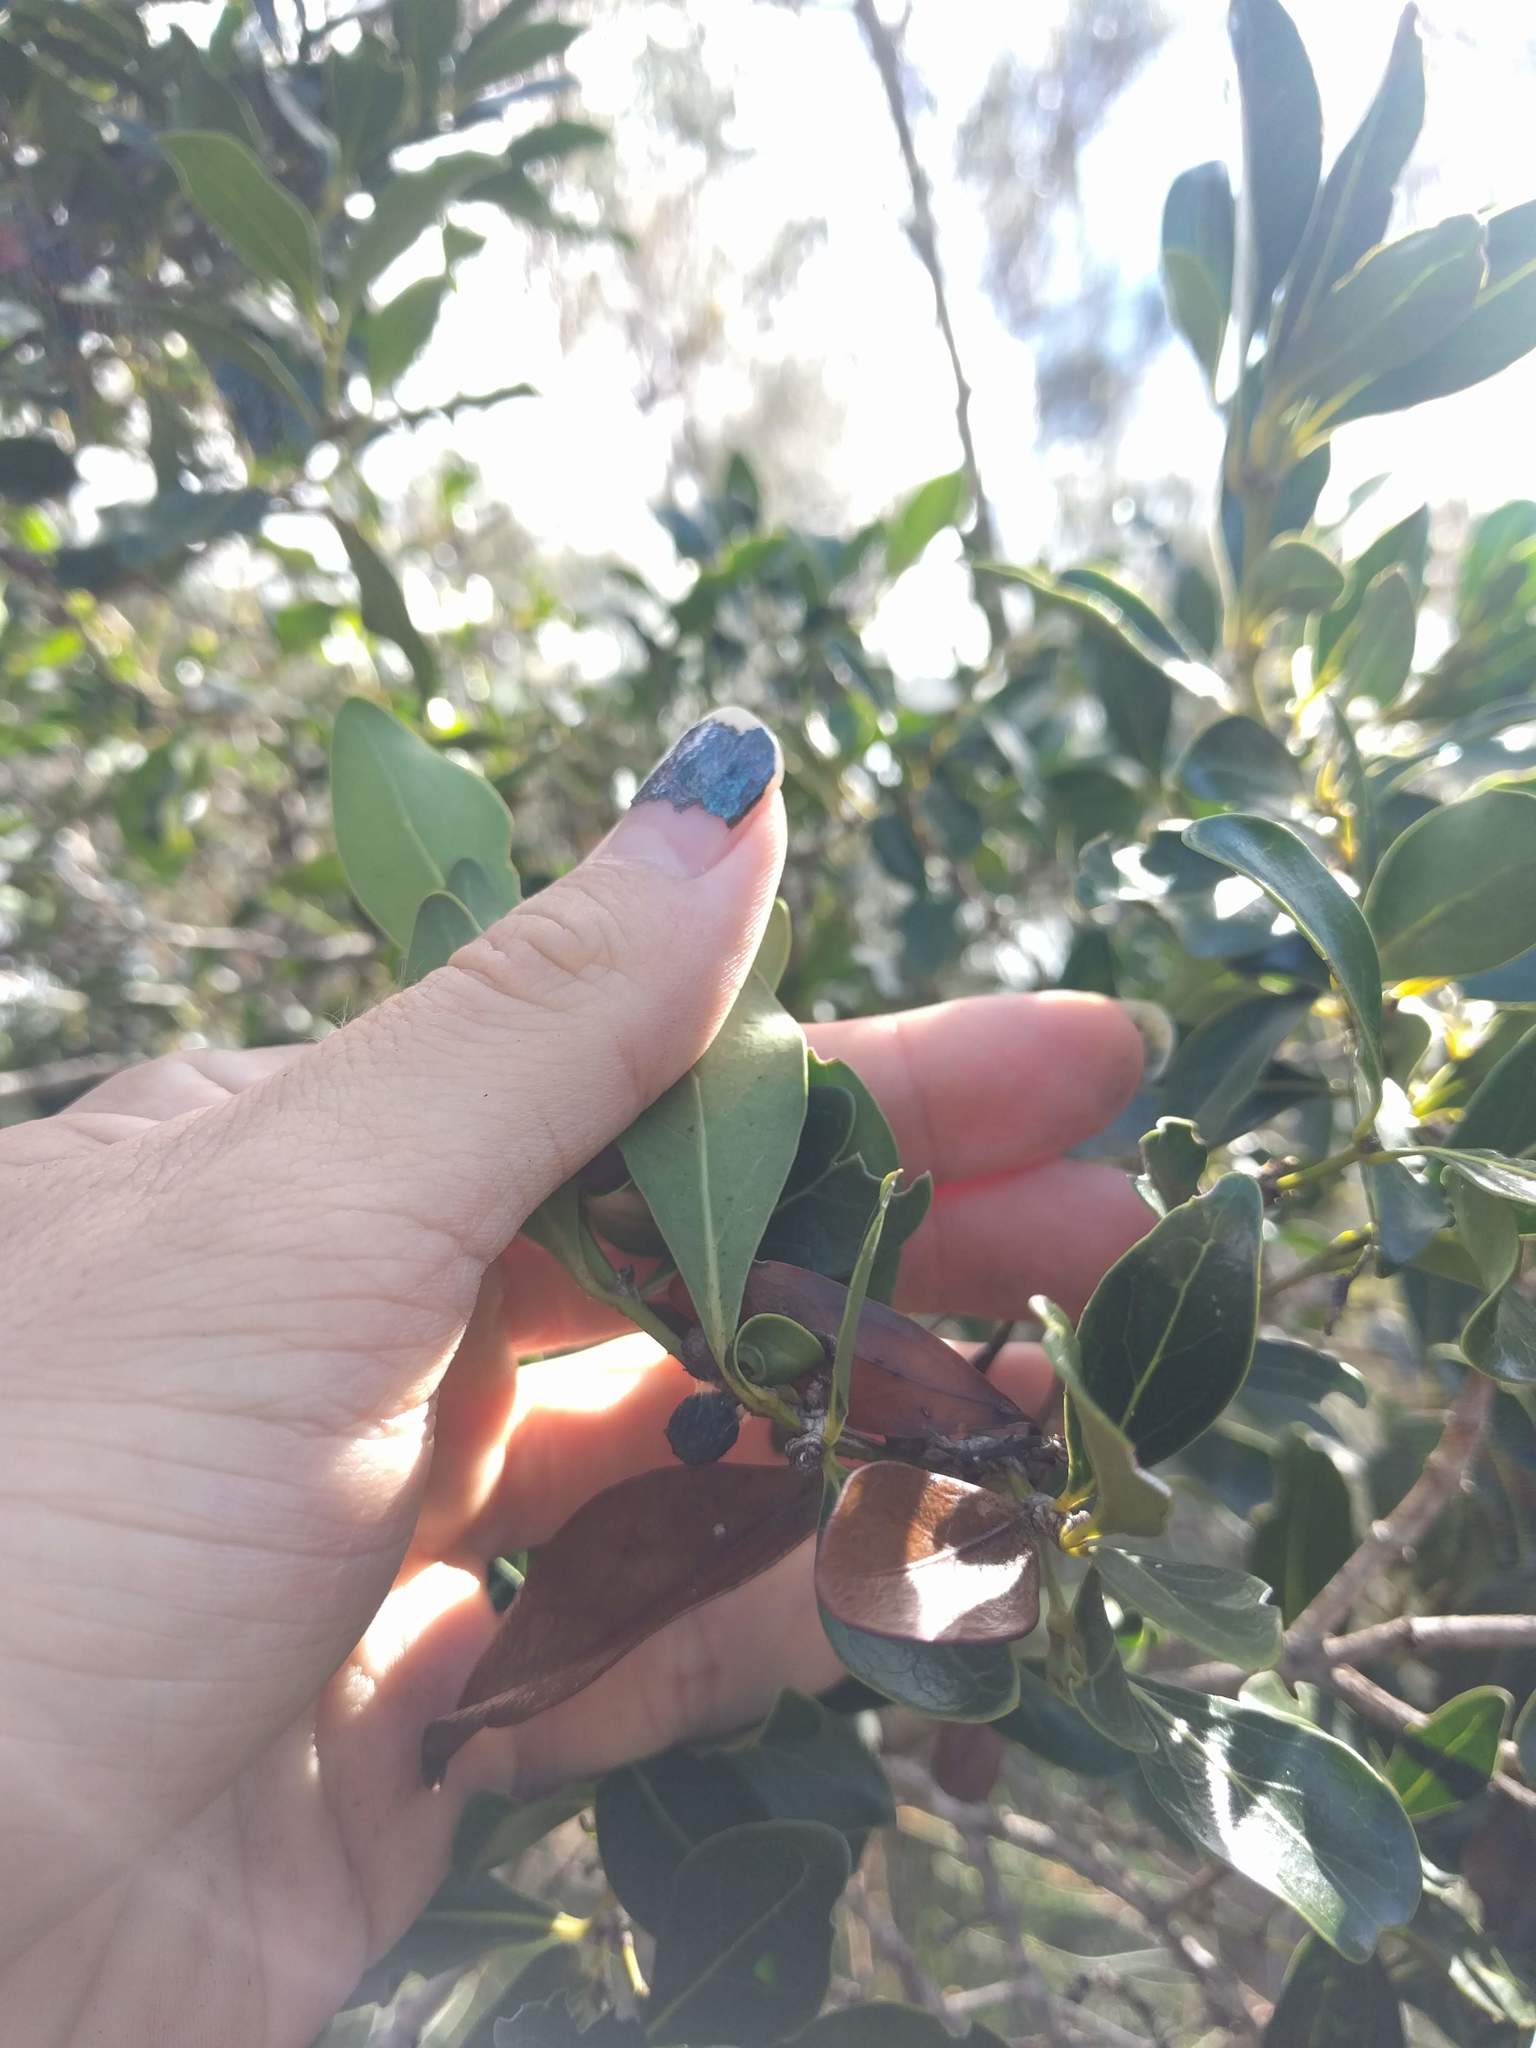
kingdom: Plantae
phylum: Tracheophyta
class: Magnoliopsida
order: Myrtales
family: Myrtaceae
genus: Psidium
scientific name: Psidium cattleianum
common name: Strawberry guava
